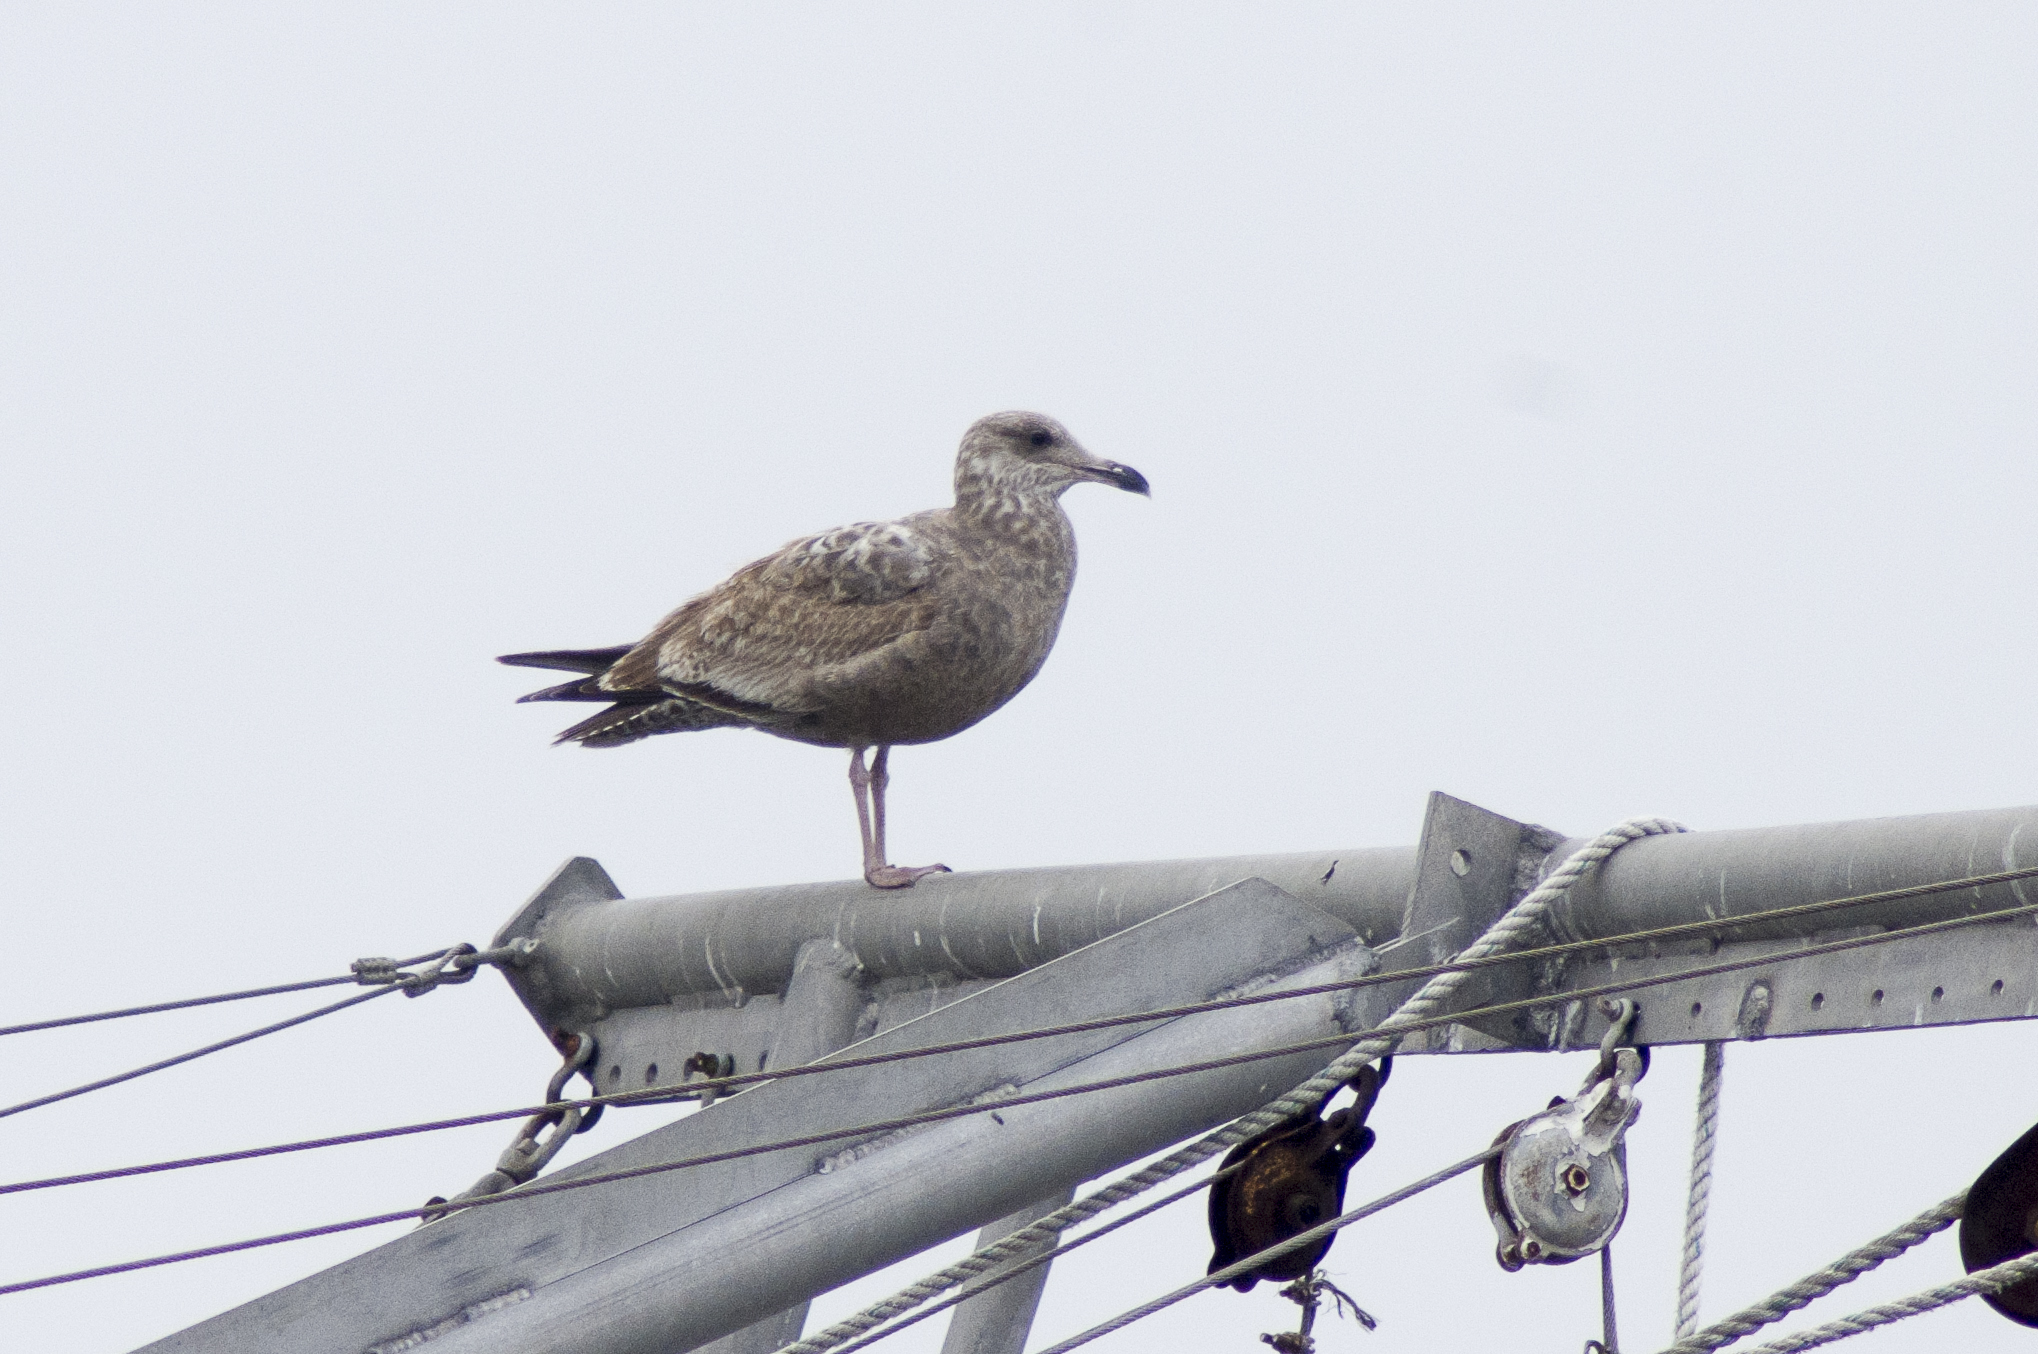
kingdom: Animalia
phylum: Chordata
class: Aves
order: Charadriiformes
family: Laridae
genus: Larus
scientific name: Larus argentatus
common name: Herring gull
